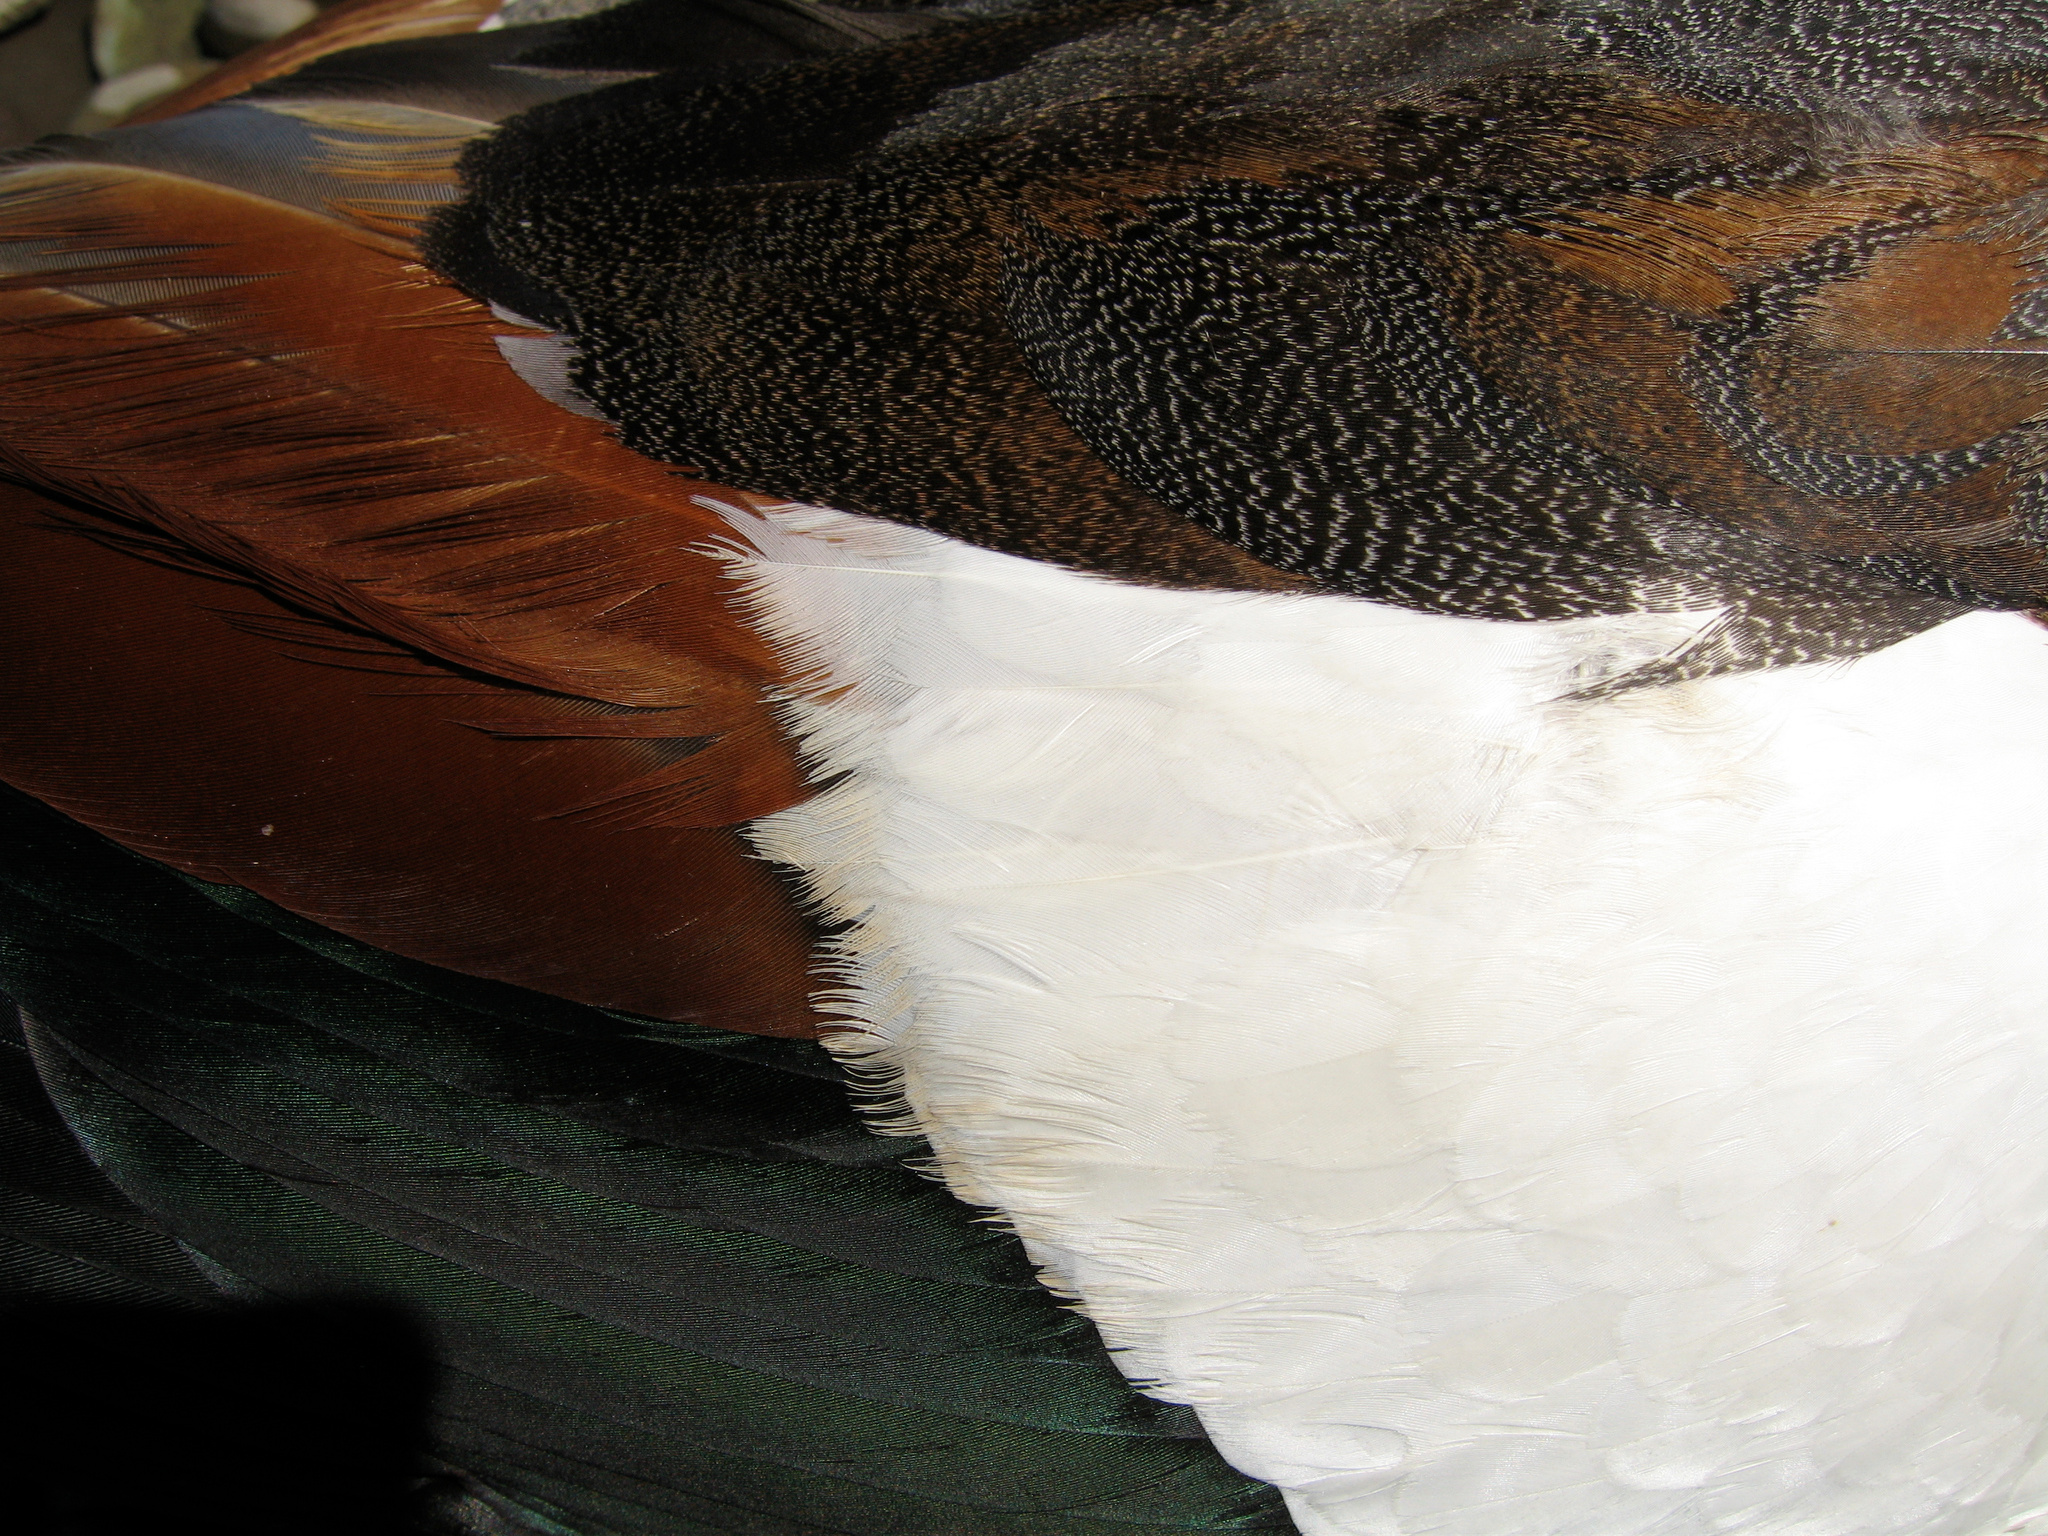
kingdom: Animalia
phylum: Chordata
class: Aves
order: Anseriformes
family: Anatidae
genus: Tadorna
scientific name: Tadorna variegata
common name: Paradise shelduck
